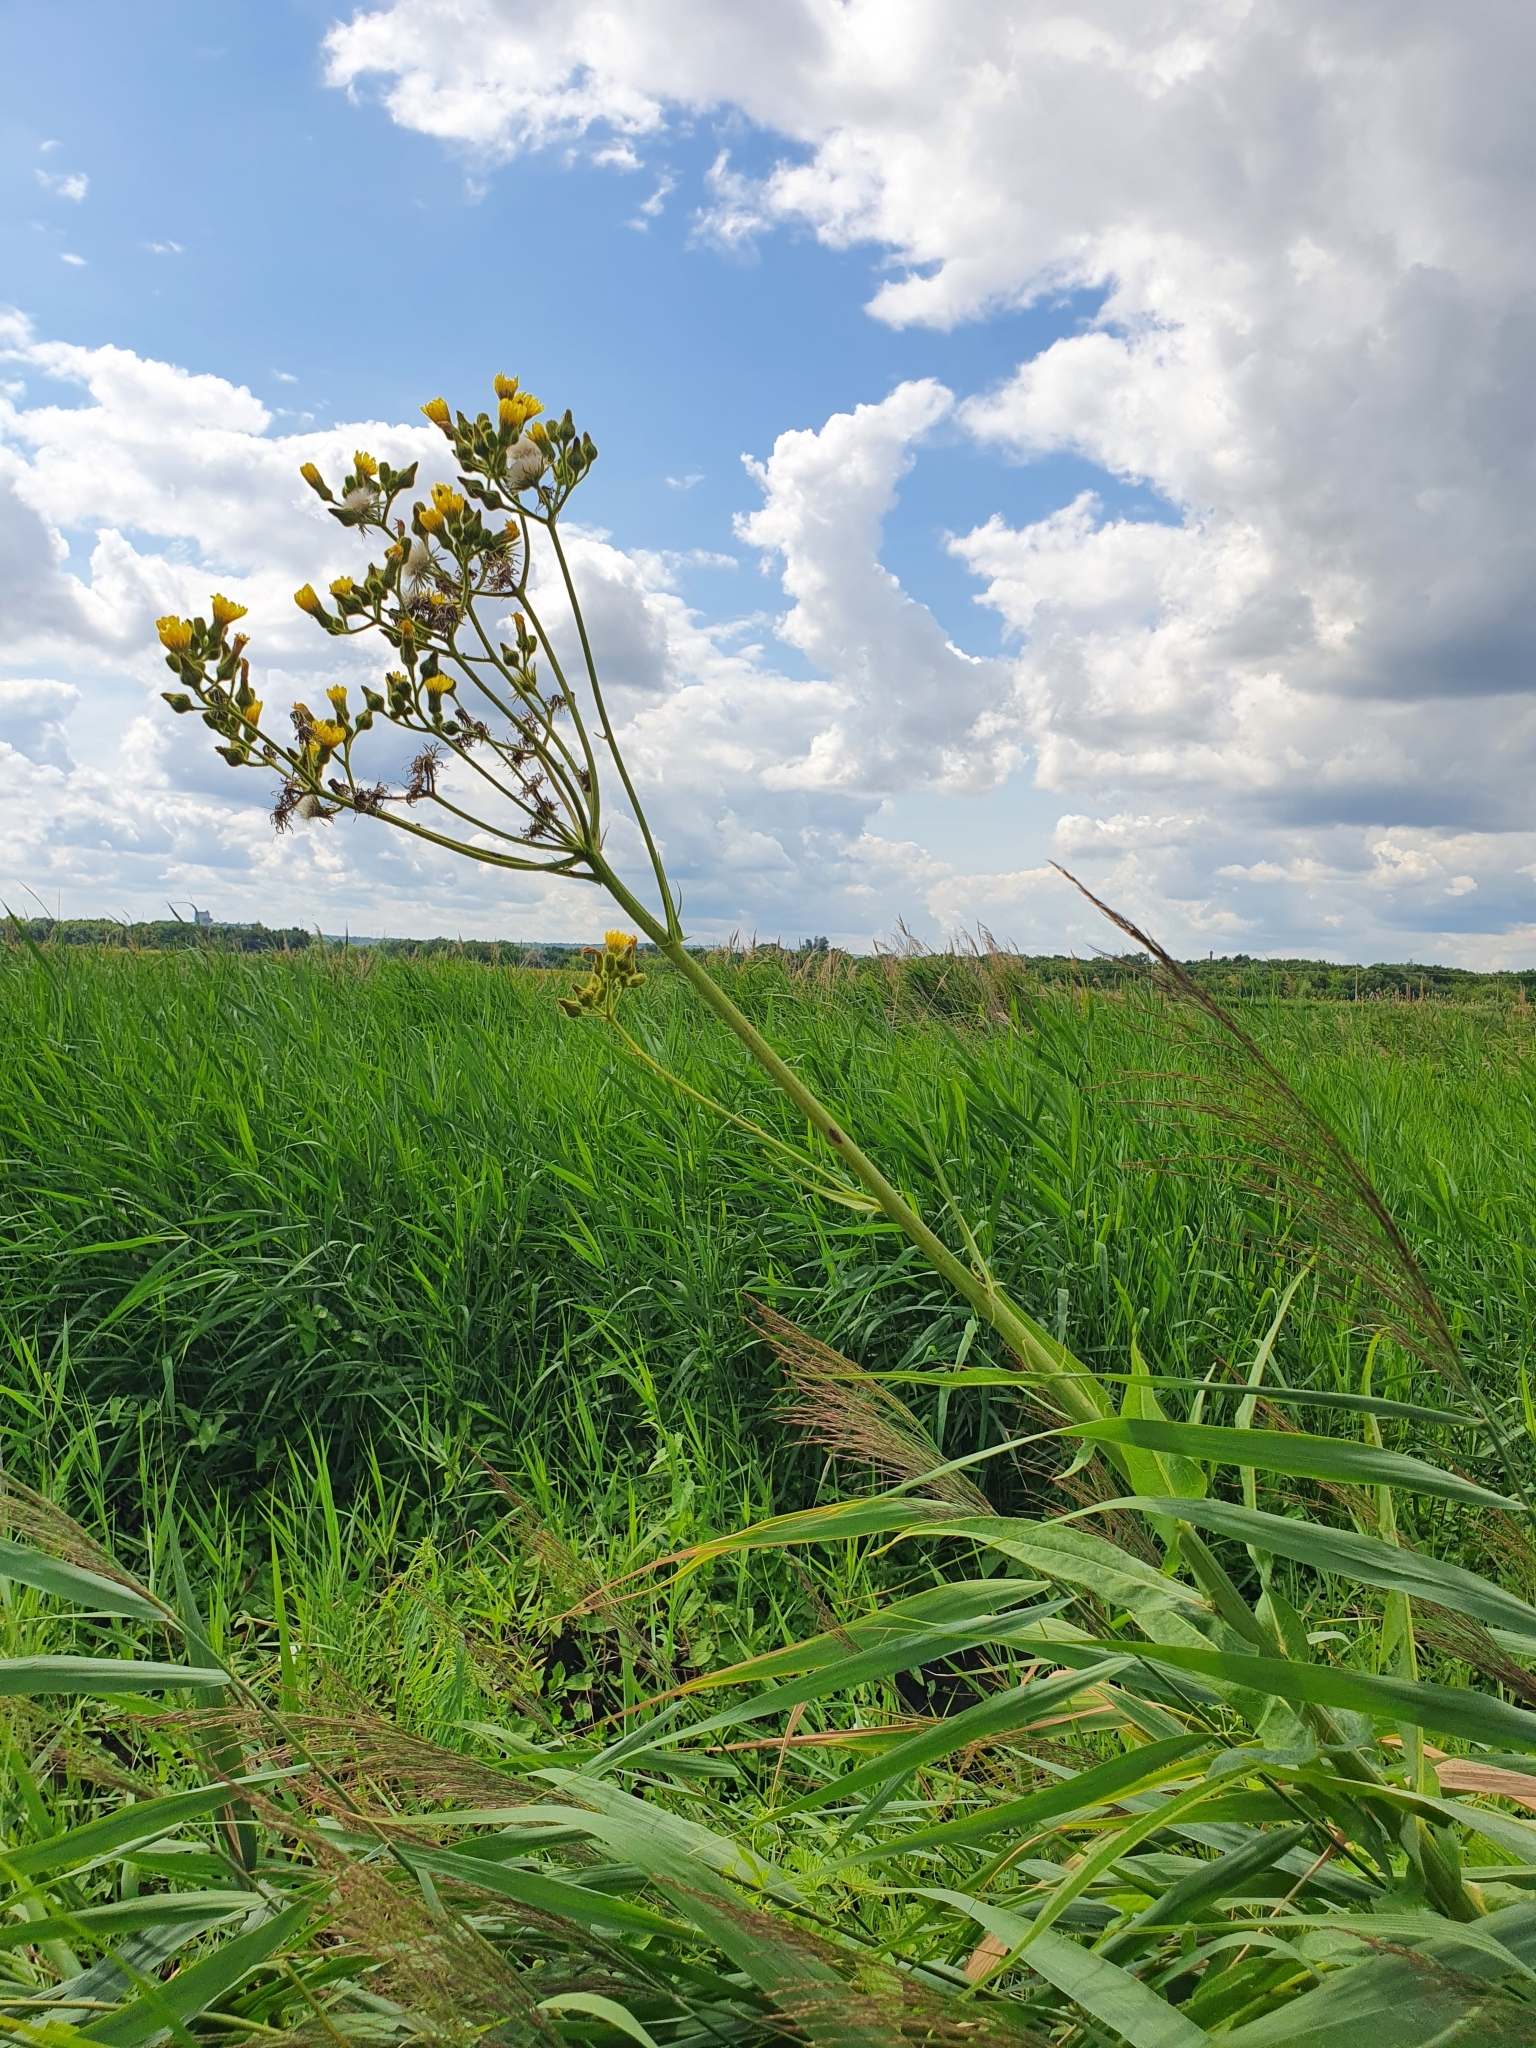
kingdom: Plantae
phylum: Tracheophyta
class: Magnoliopsida
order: Asterales
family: Asteraceae
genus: Sonchus
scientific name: Sonchus palustris
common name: Marsh sow-thistle
